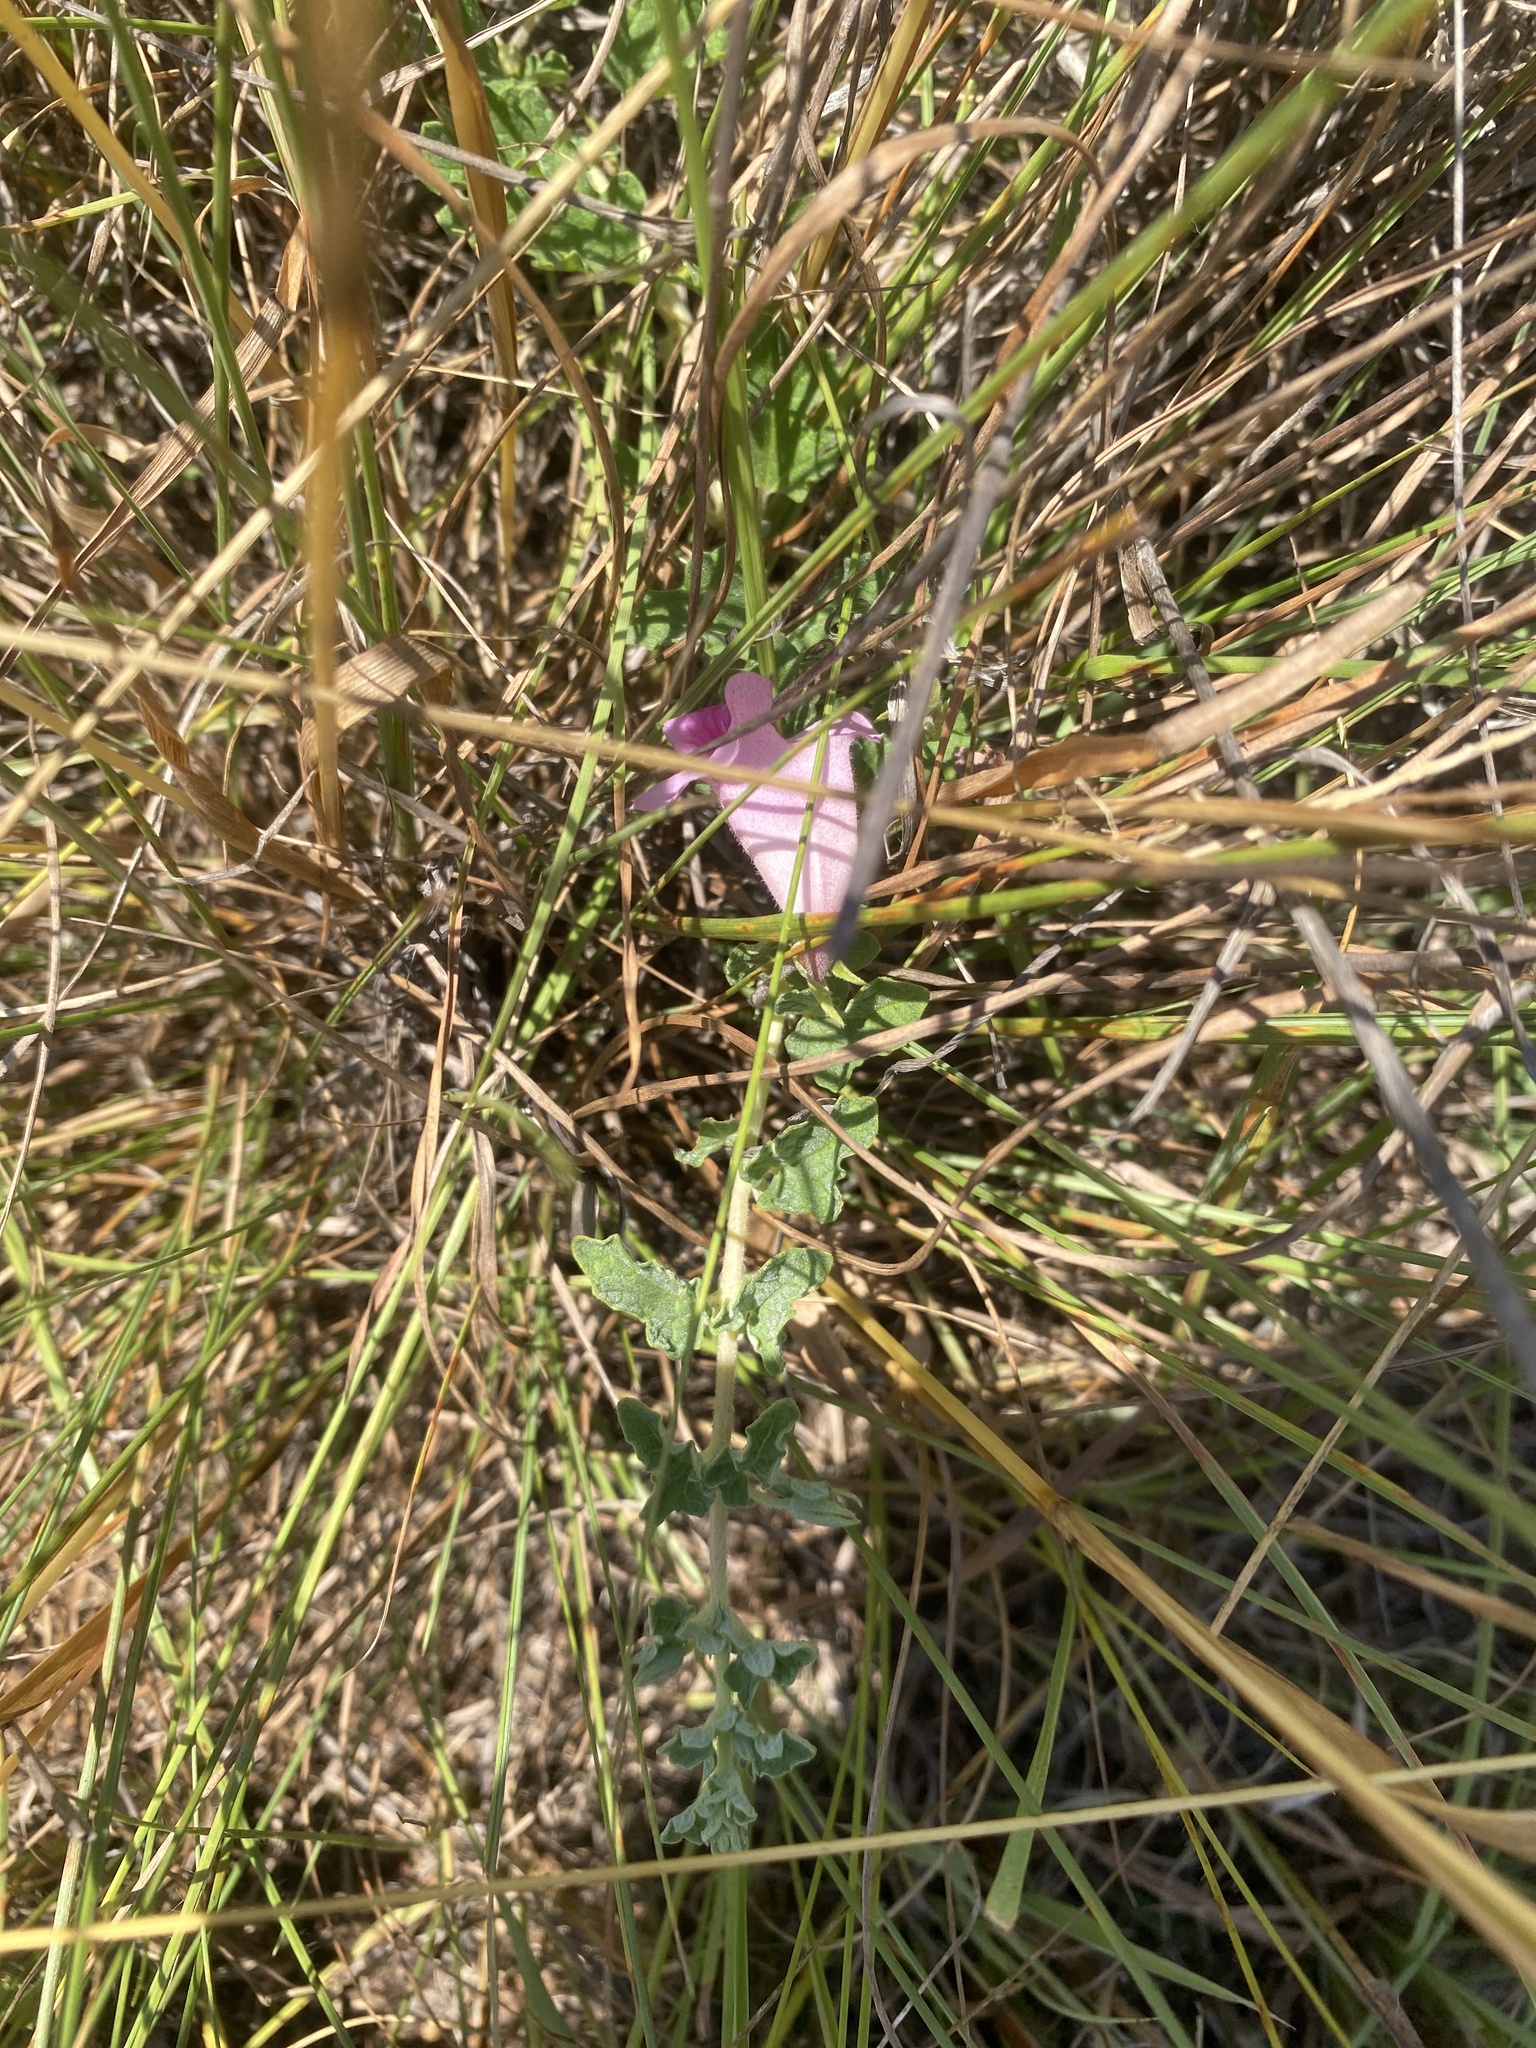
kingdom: Plantae
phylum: Tracheophyta
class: Magnoliopsida
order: Lamiales
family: Pedaliaceae
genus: Dicerocaryum
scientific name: Dicerocaryum senecioides
